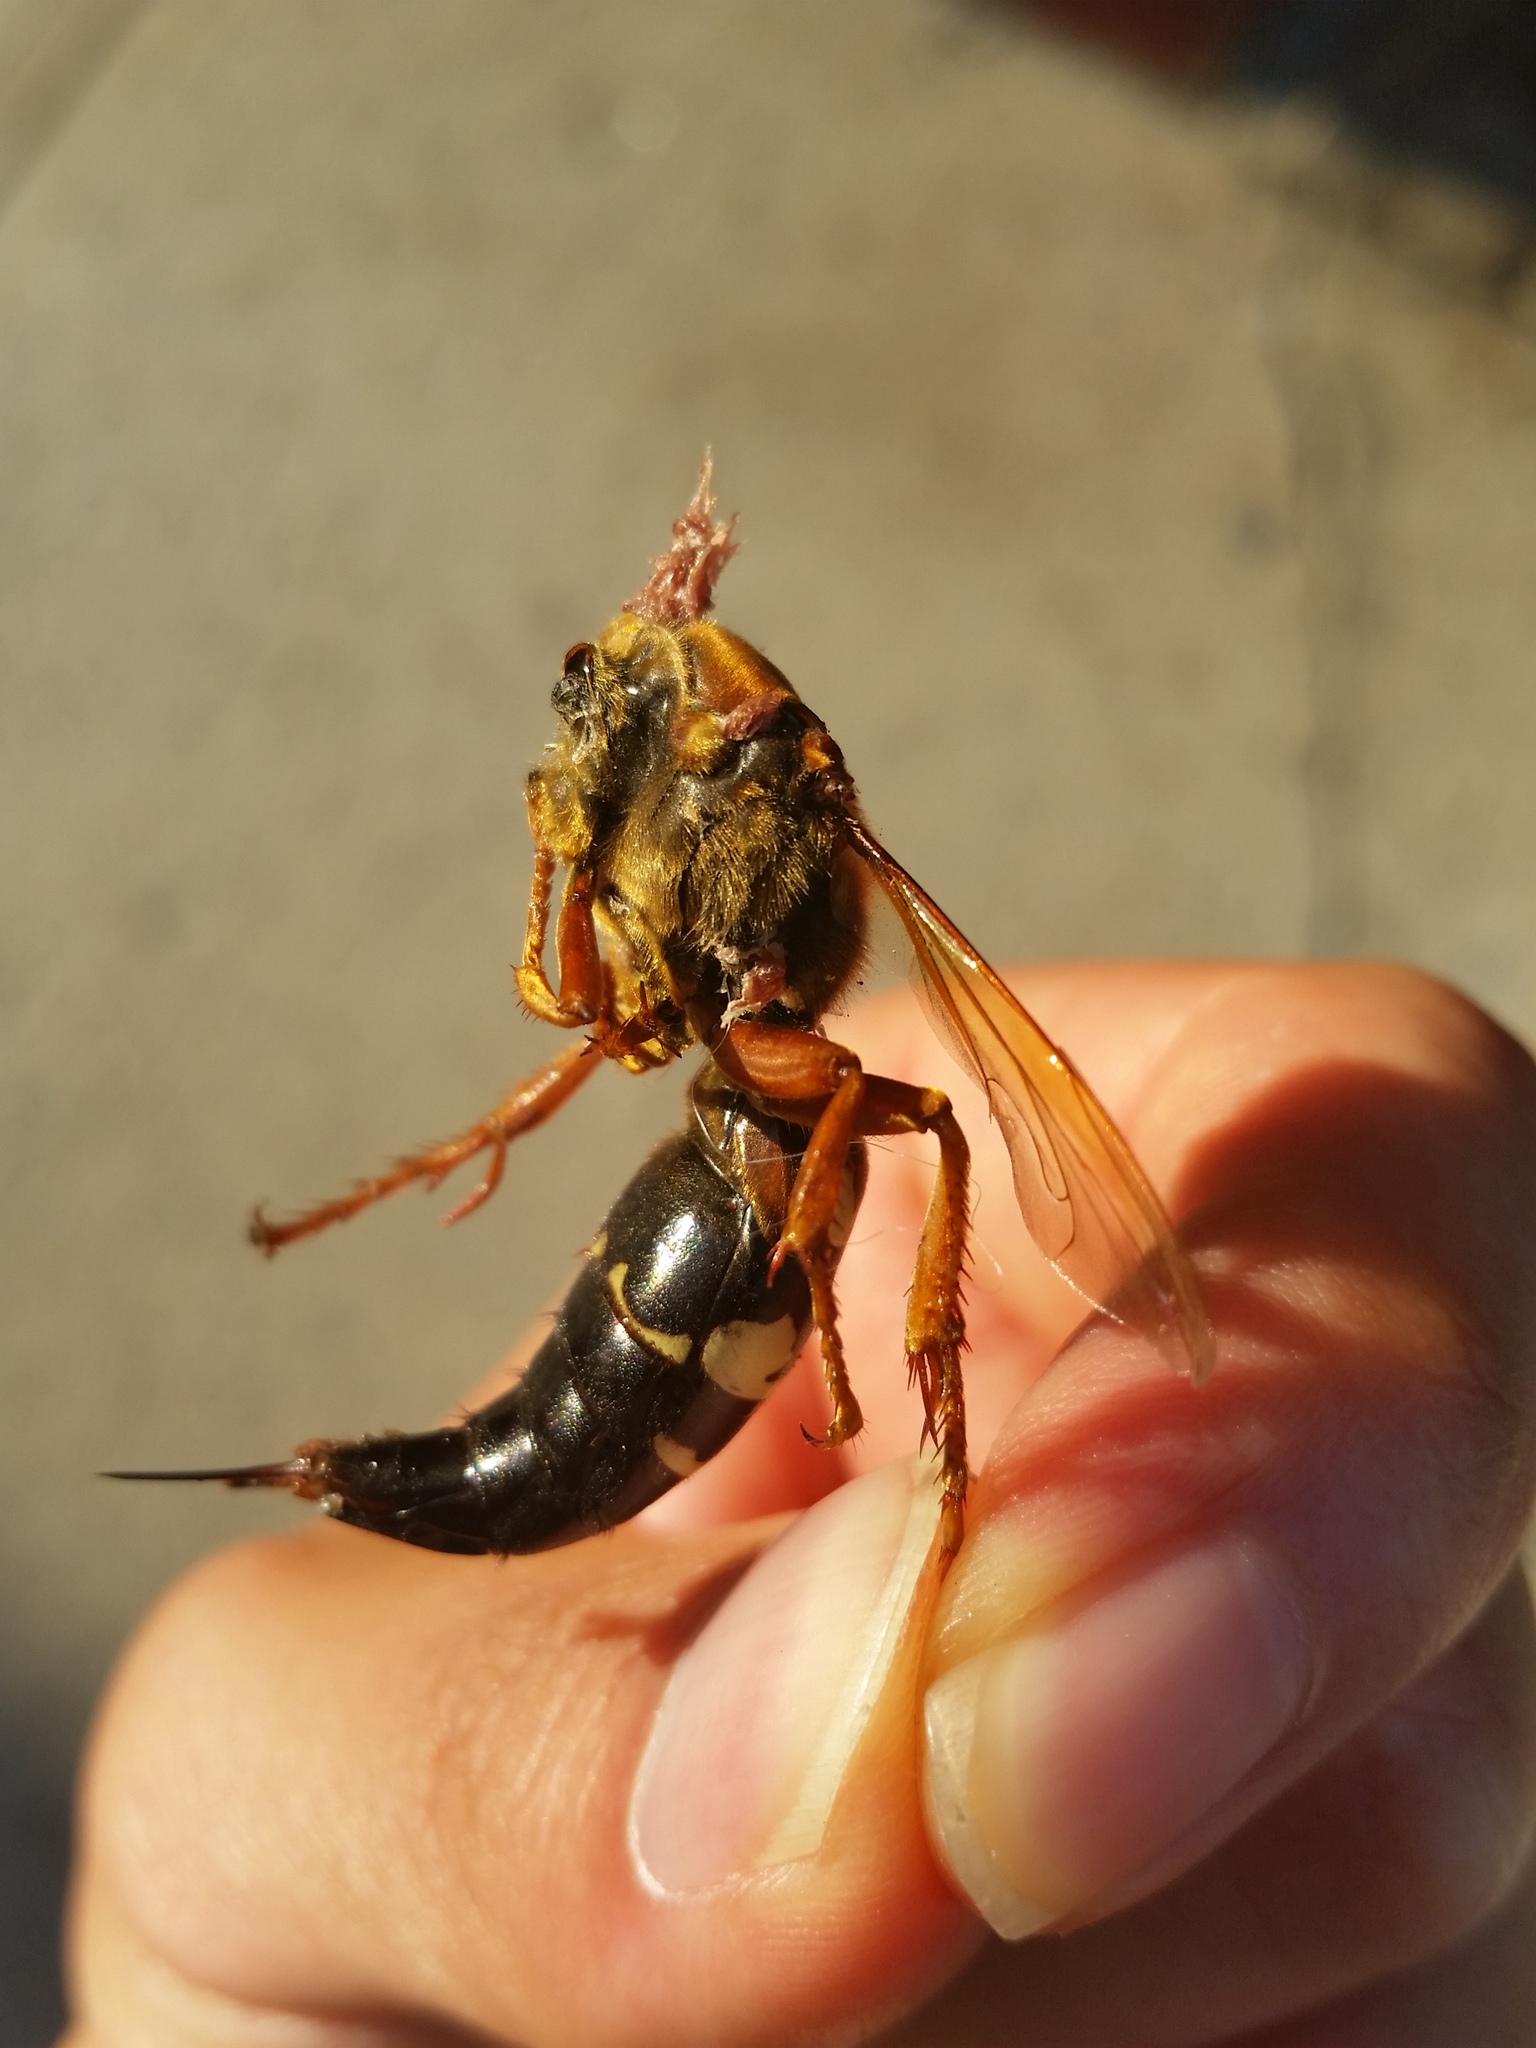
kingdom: Animalia
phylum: Arthropoda
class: Insecta
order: Hymenoptera
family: Crabronidae
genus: Sphecius
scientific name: Sphecius speciosus
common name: Cicada killer
